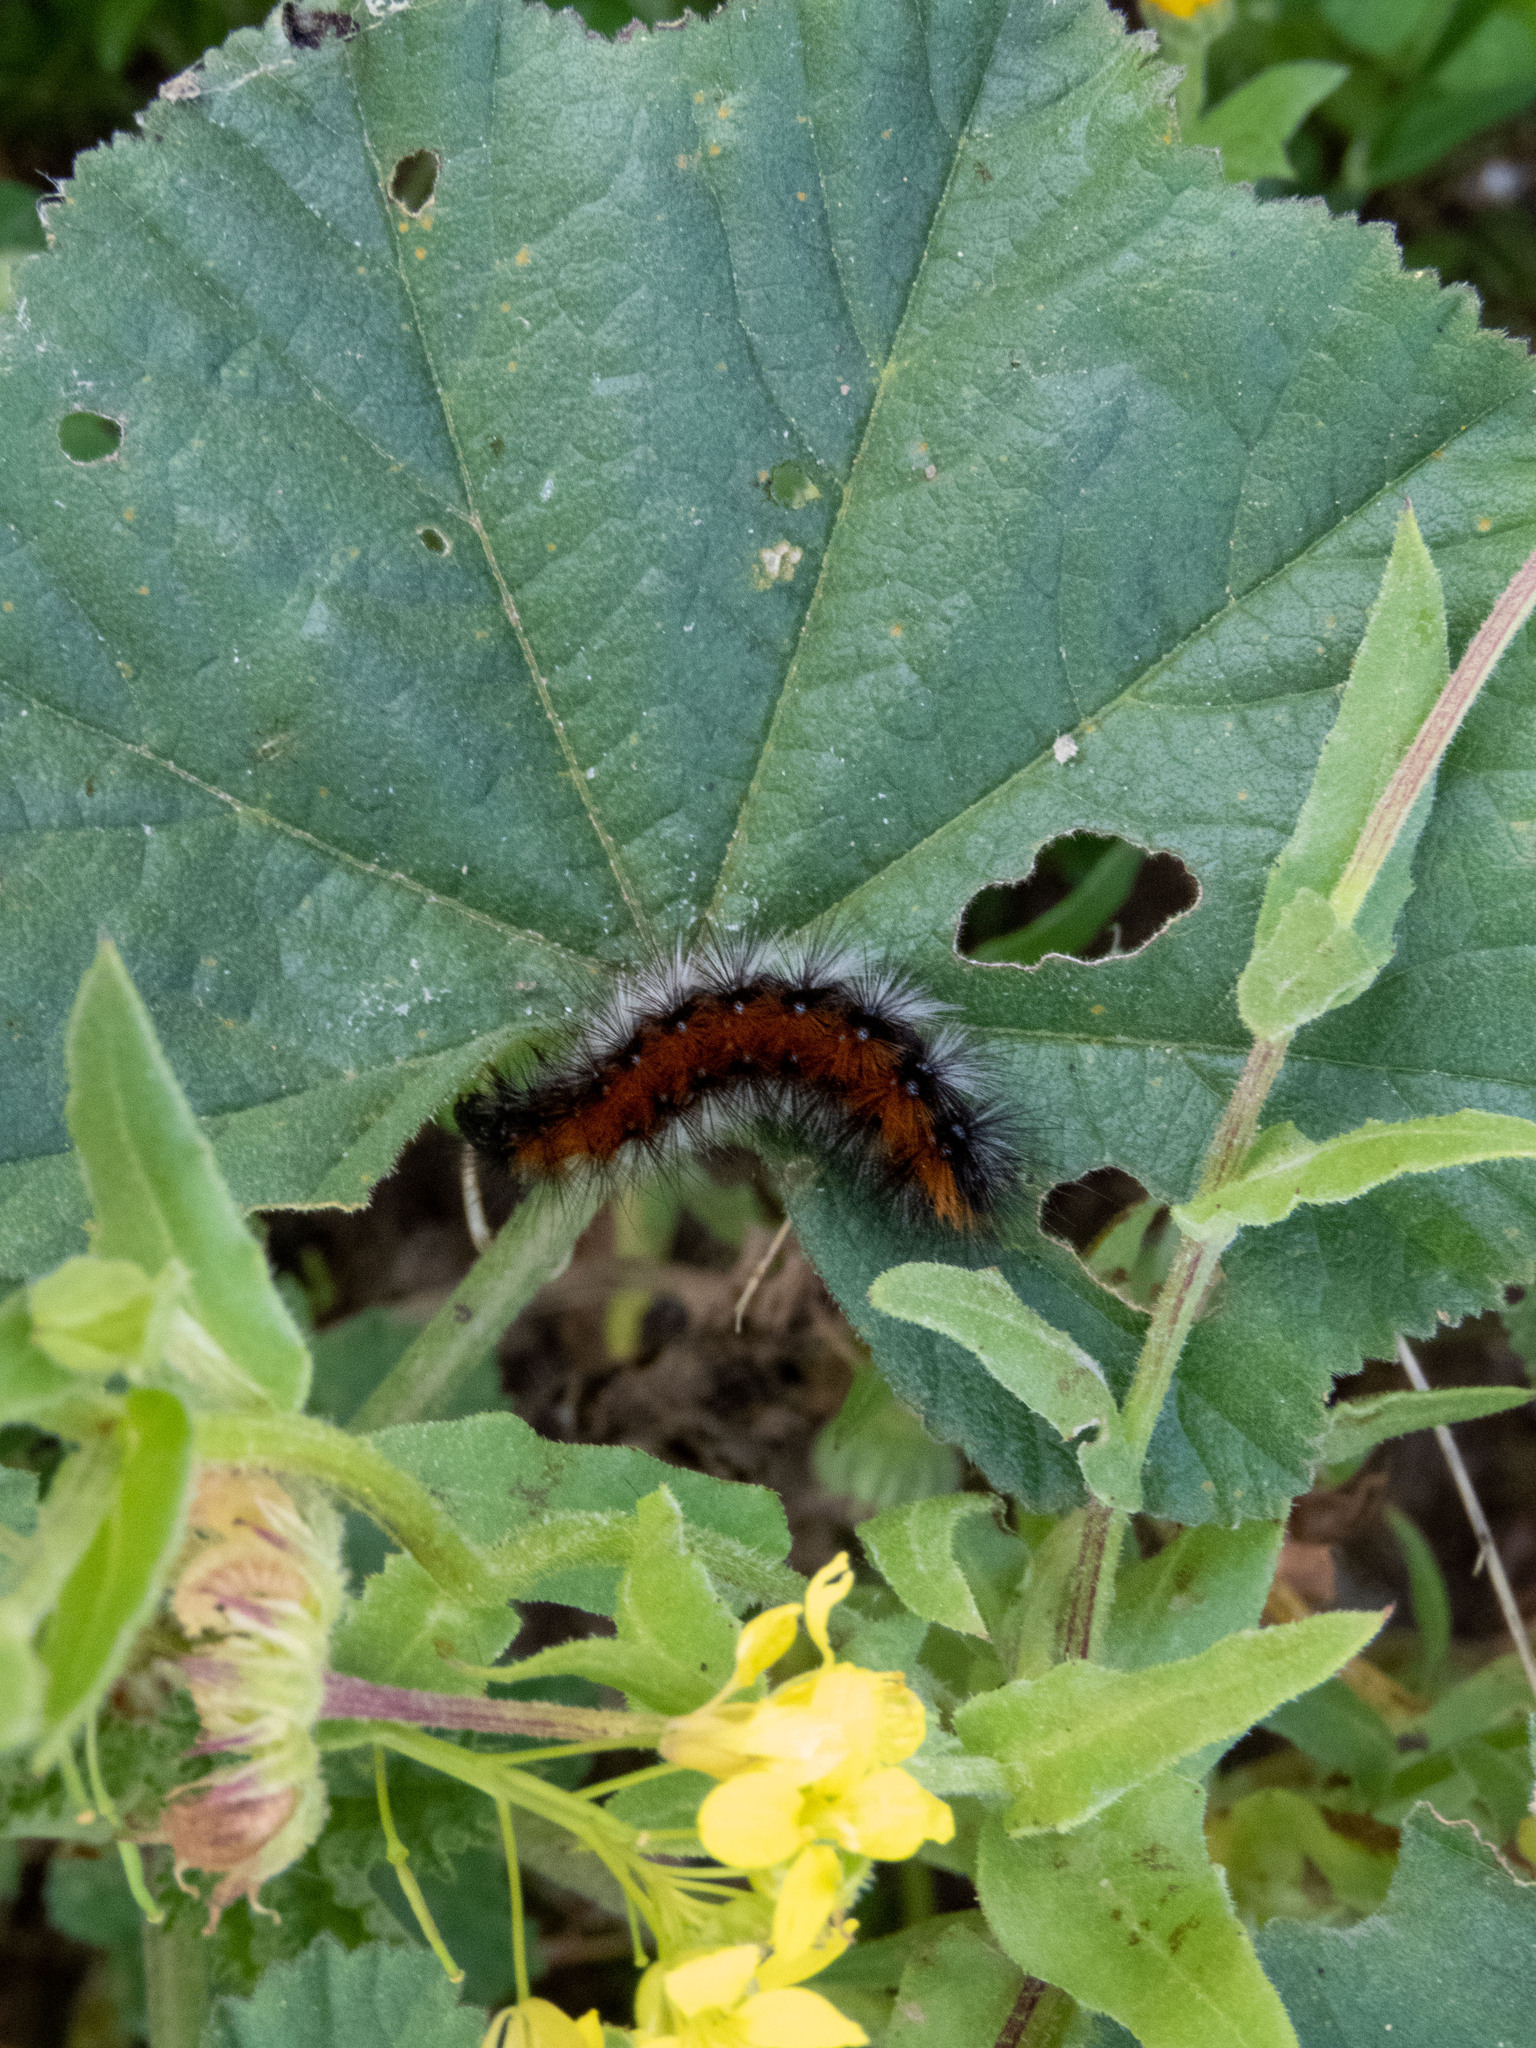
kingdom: Animalia
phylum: Arthropoda
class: Insecta
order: Lepidoptera
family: Erebidae
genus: Ocnogyna
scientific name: Ocnogyna boeticum
